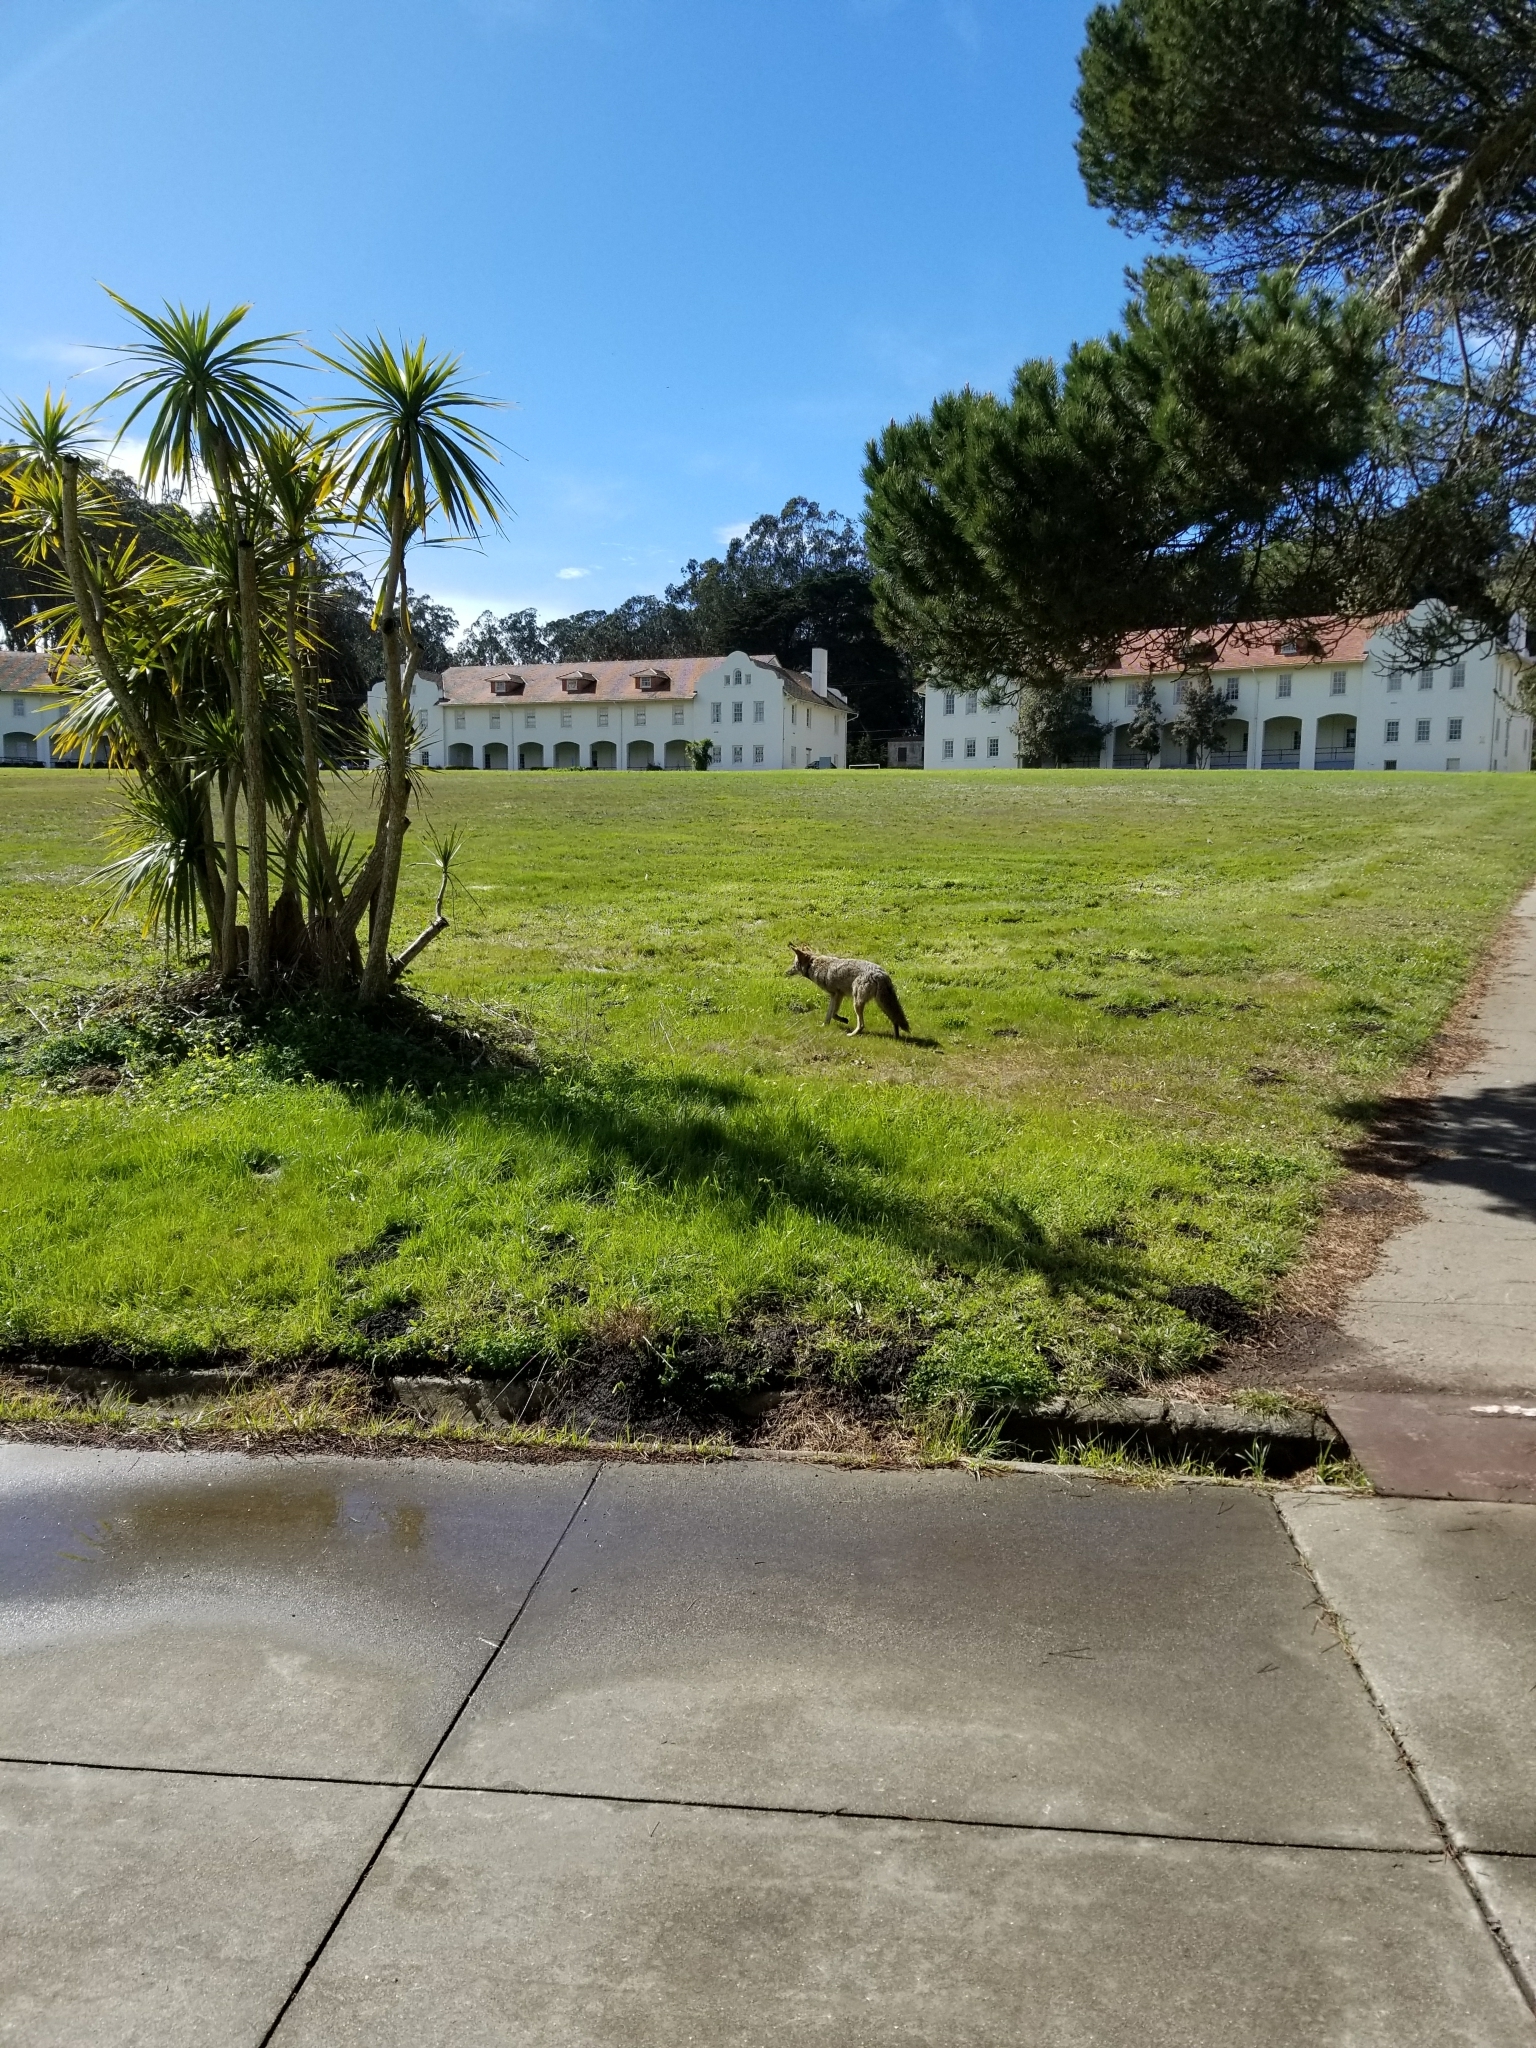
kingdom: Animalia
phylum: Chordata
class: Mammalia
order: Carnivora
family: Canidae
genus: Canis
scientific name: Canis latrans
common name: Coyote
